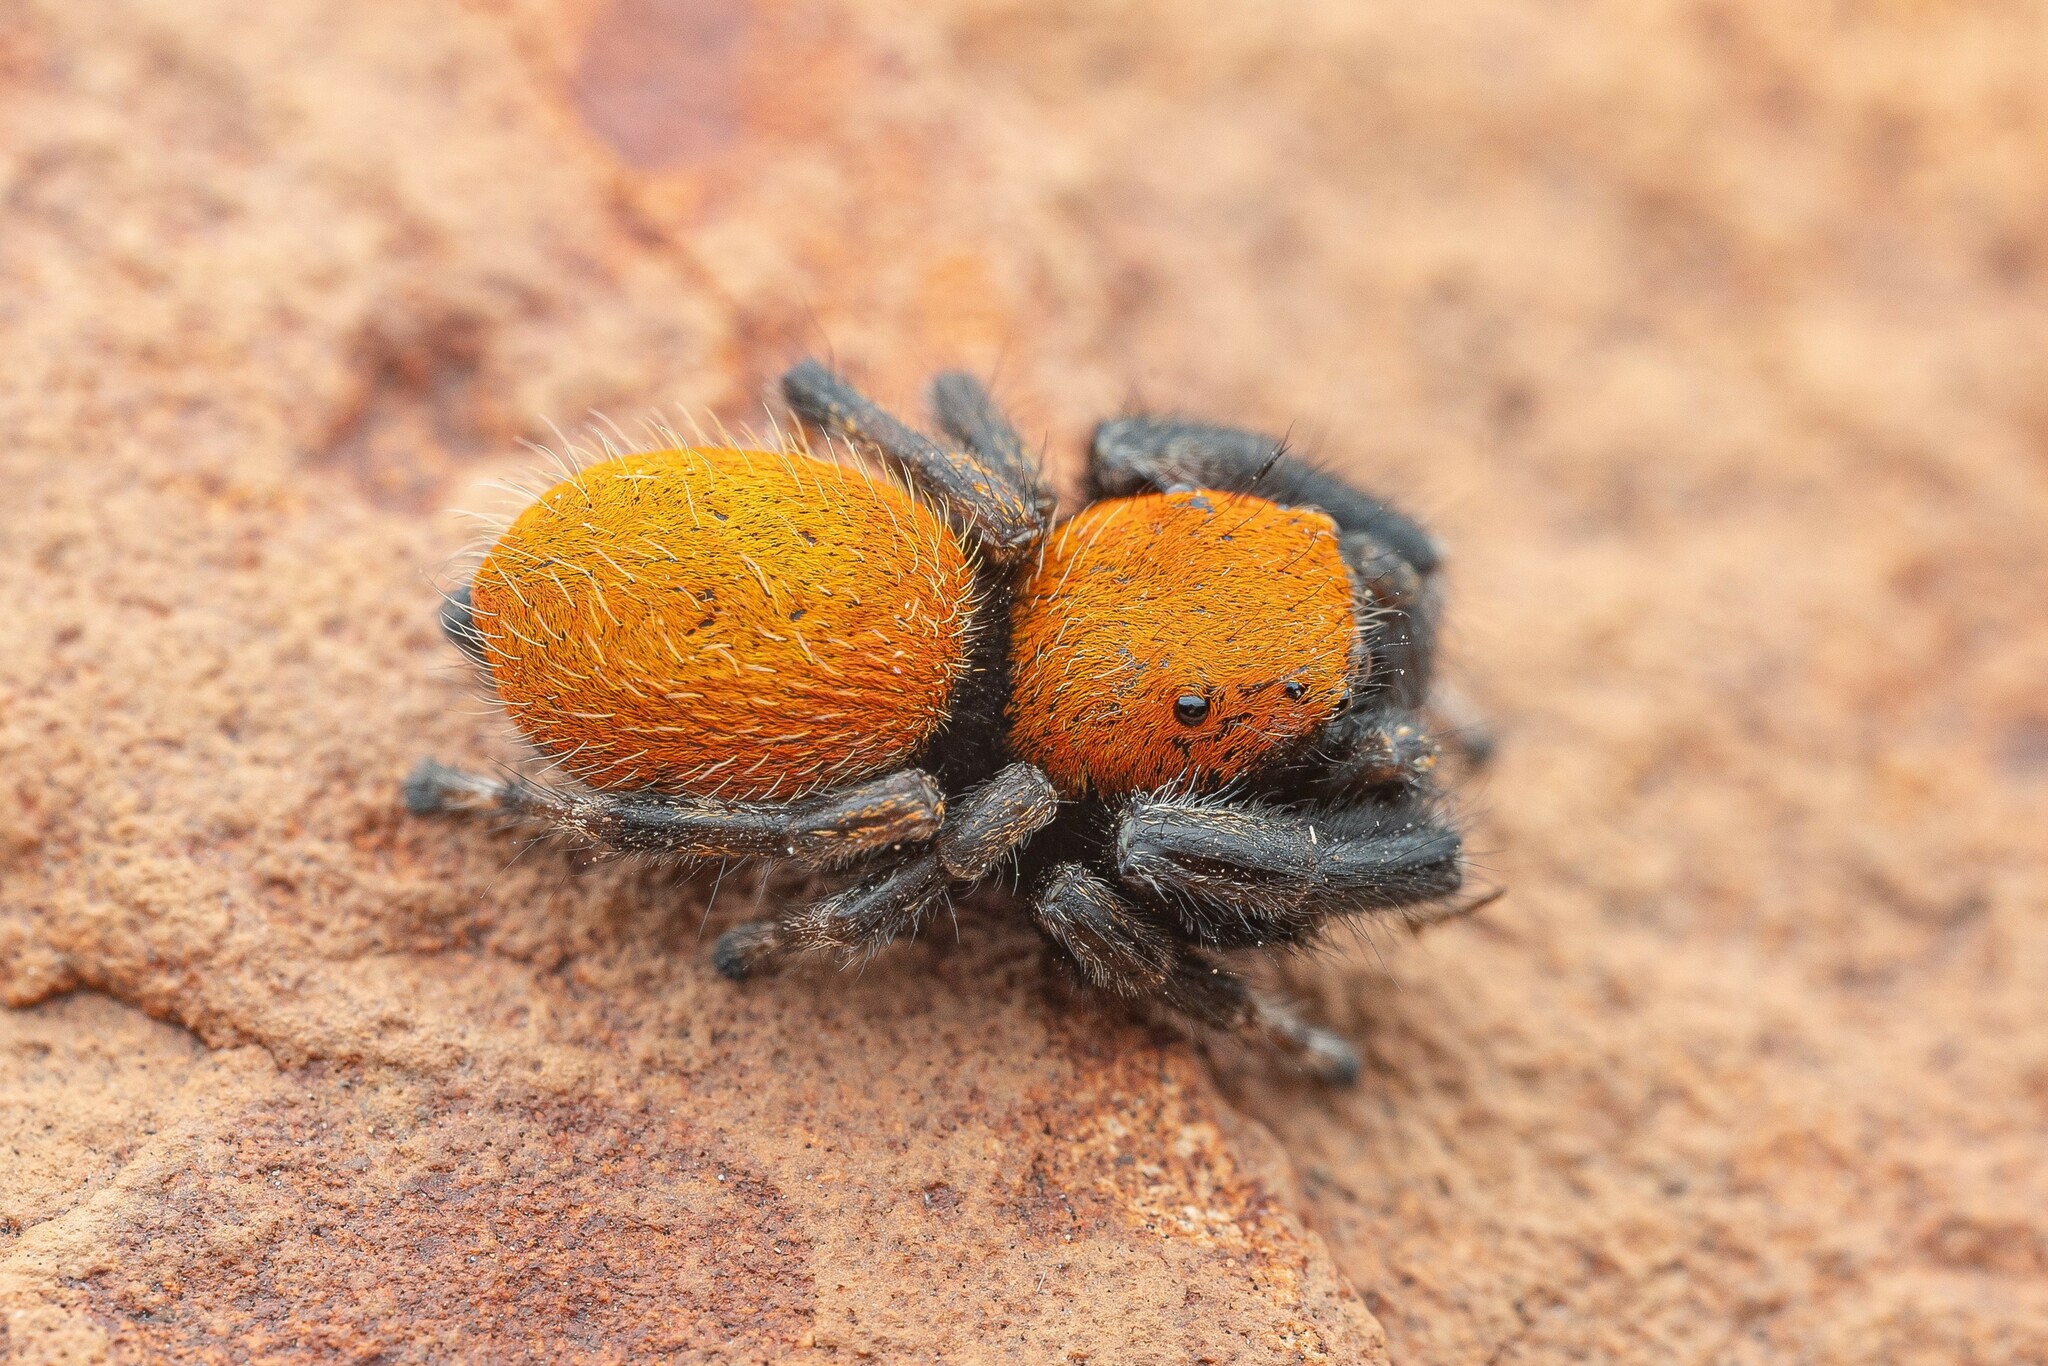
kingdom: Animalia
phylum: Arthropoda
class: Arachnida
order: Araneae
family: Salticidae
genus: Phidippus
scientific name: Phidippus apacheanus
